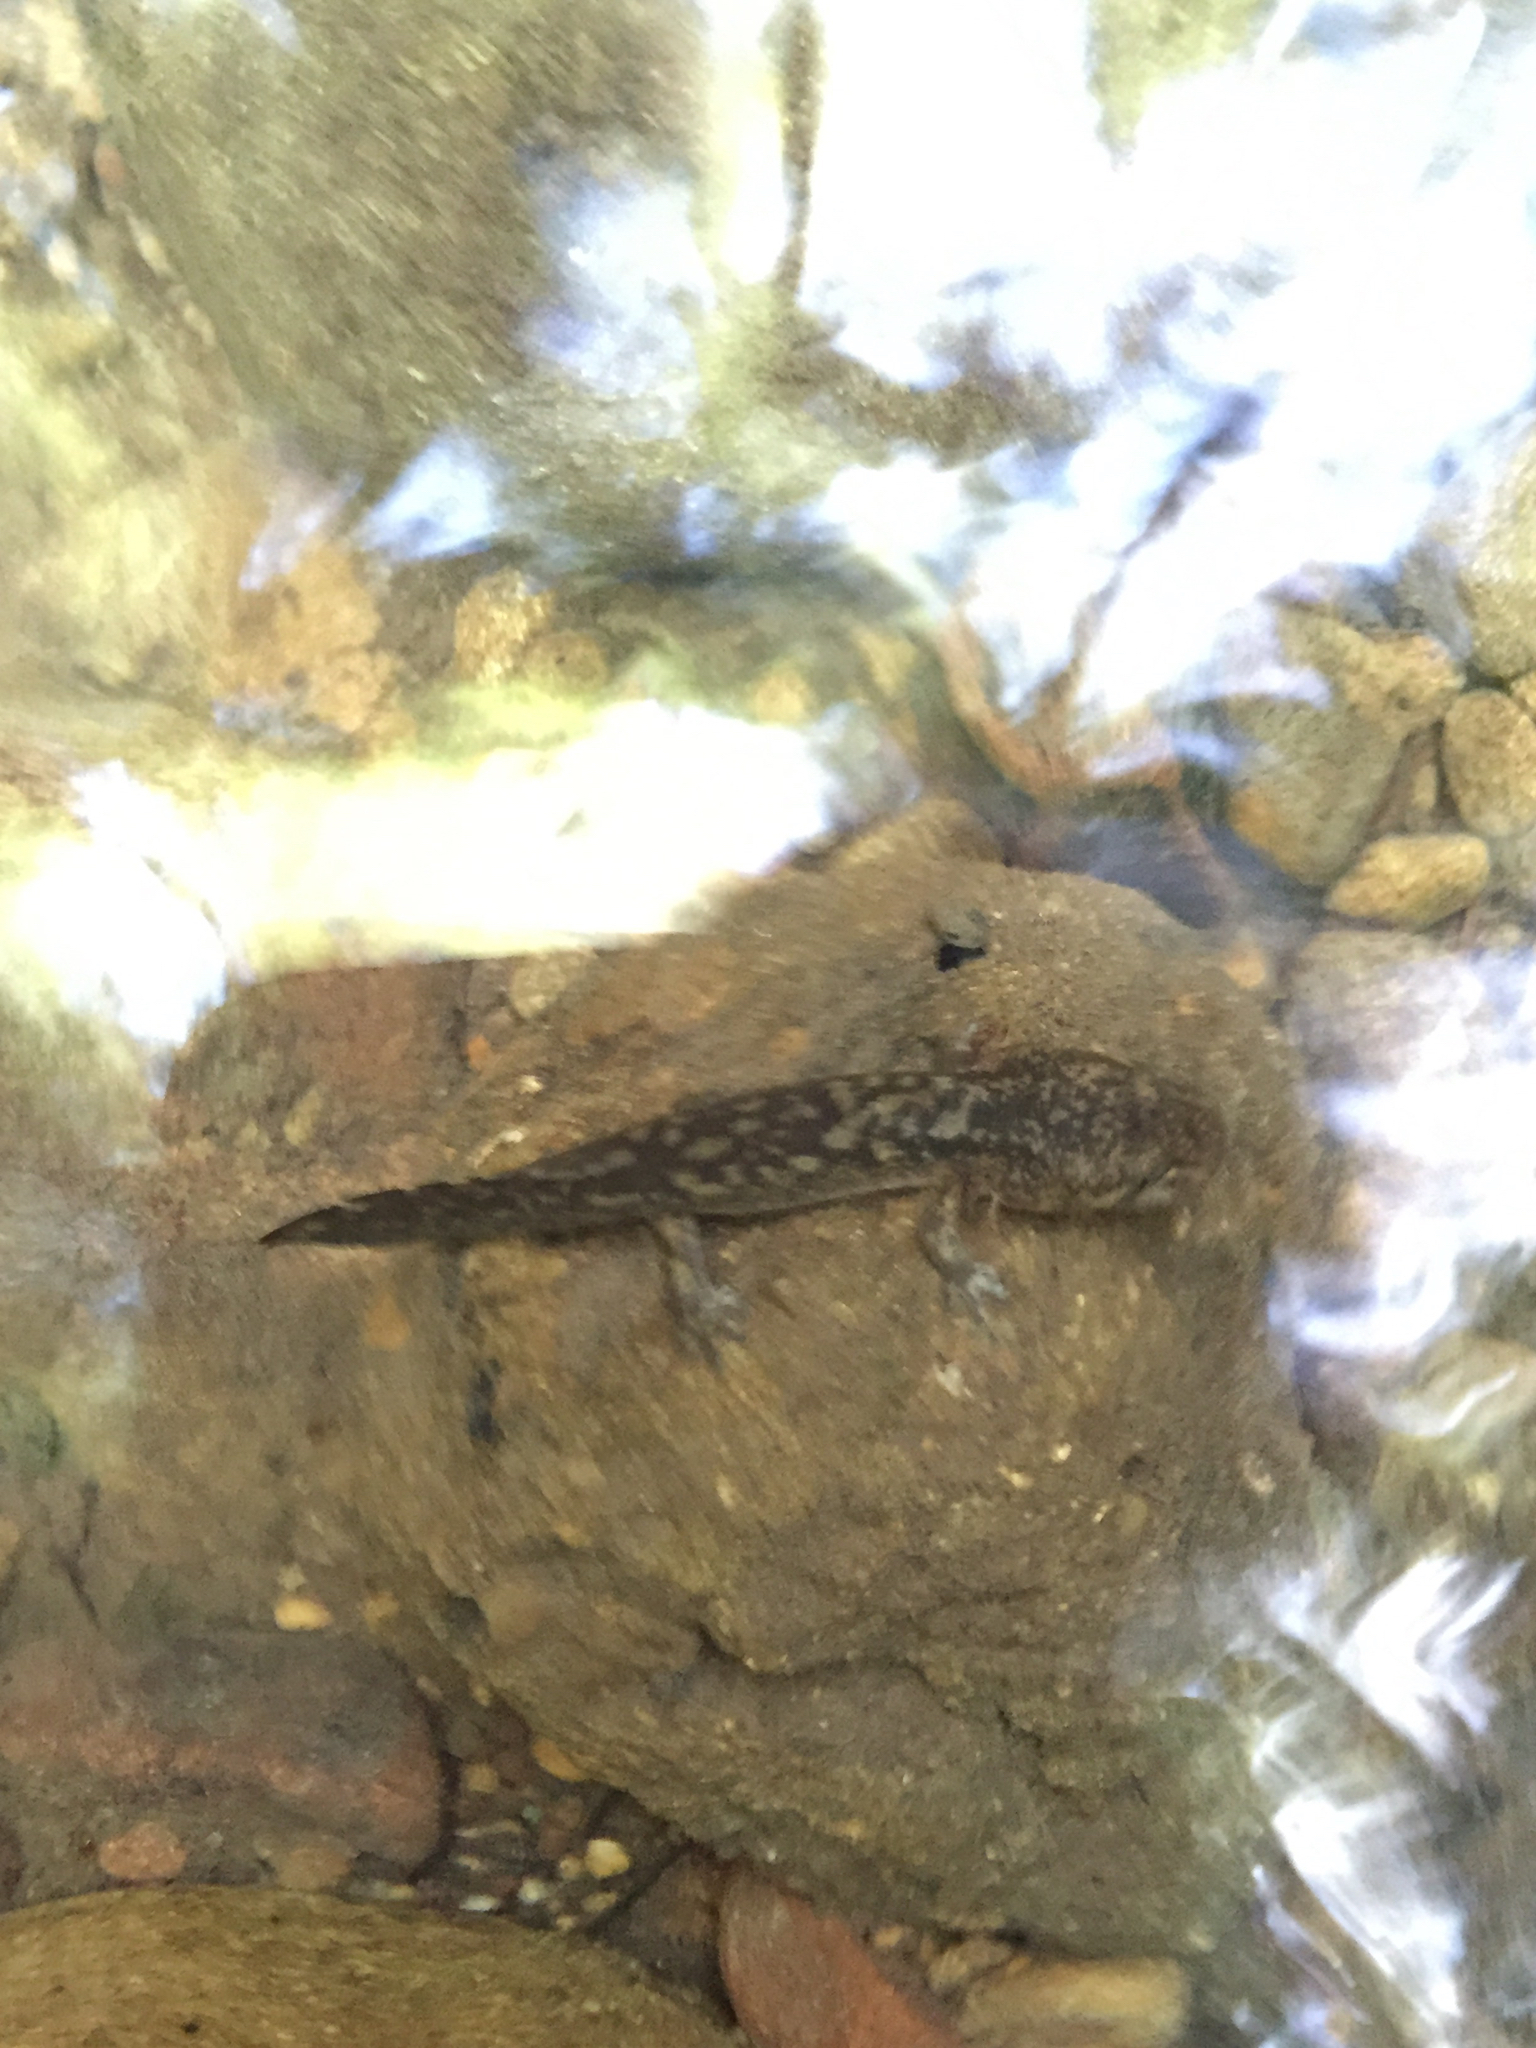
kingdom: Animalia
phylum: Chordata
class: Amphibia
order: Caudata
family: Ambystomatidae
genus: Dicamptodon
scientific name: Dicamptodon ensatus
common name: California giant salamander
